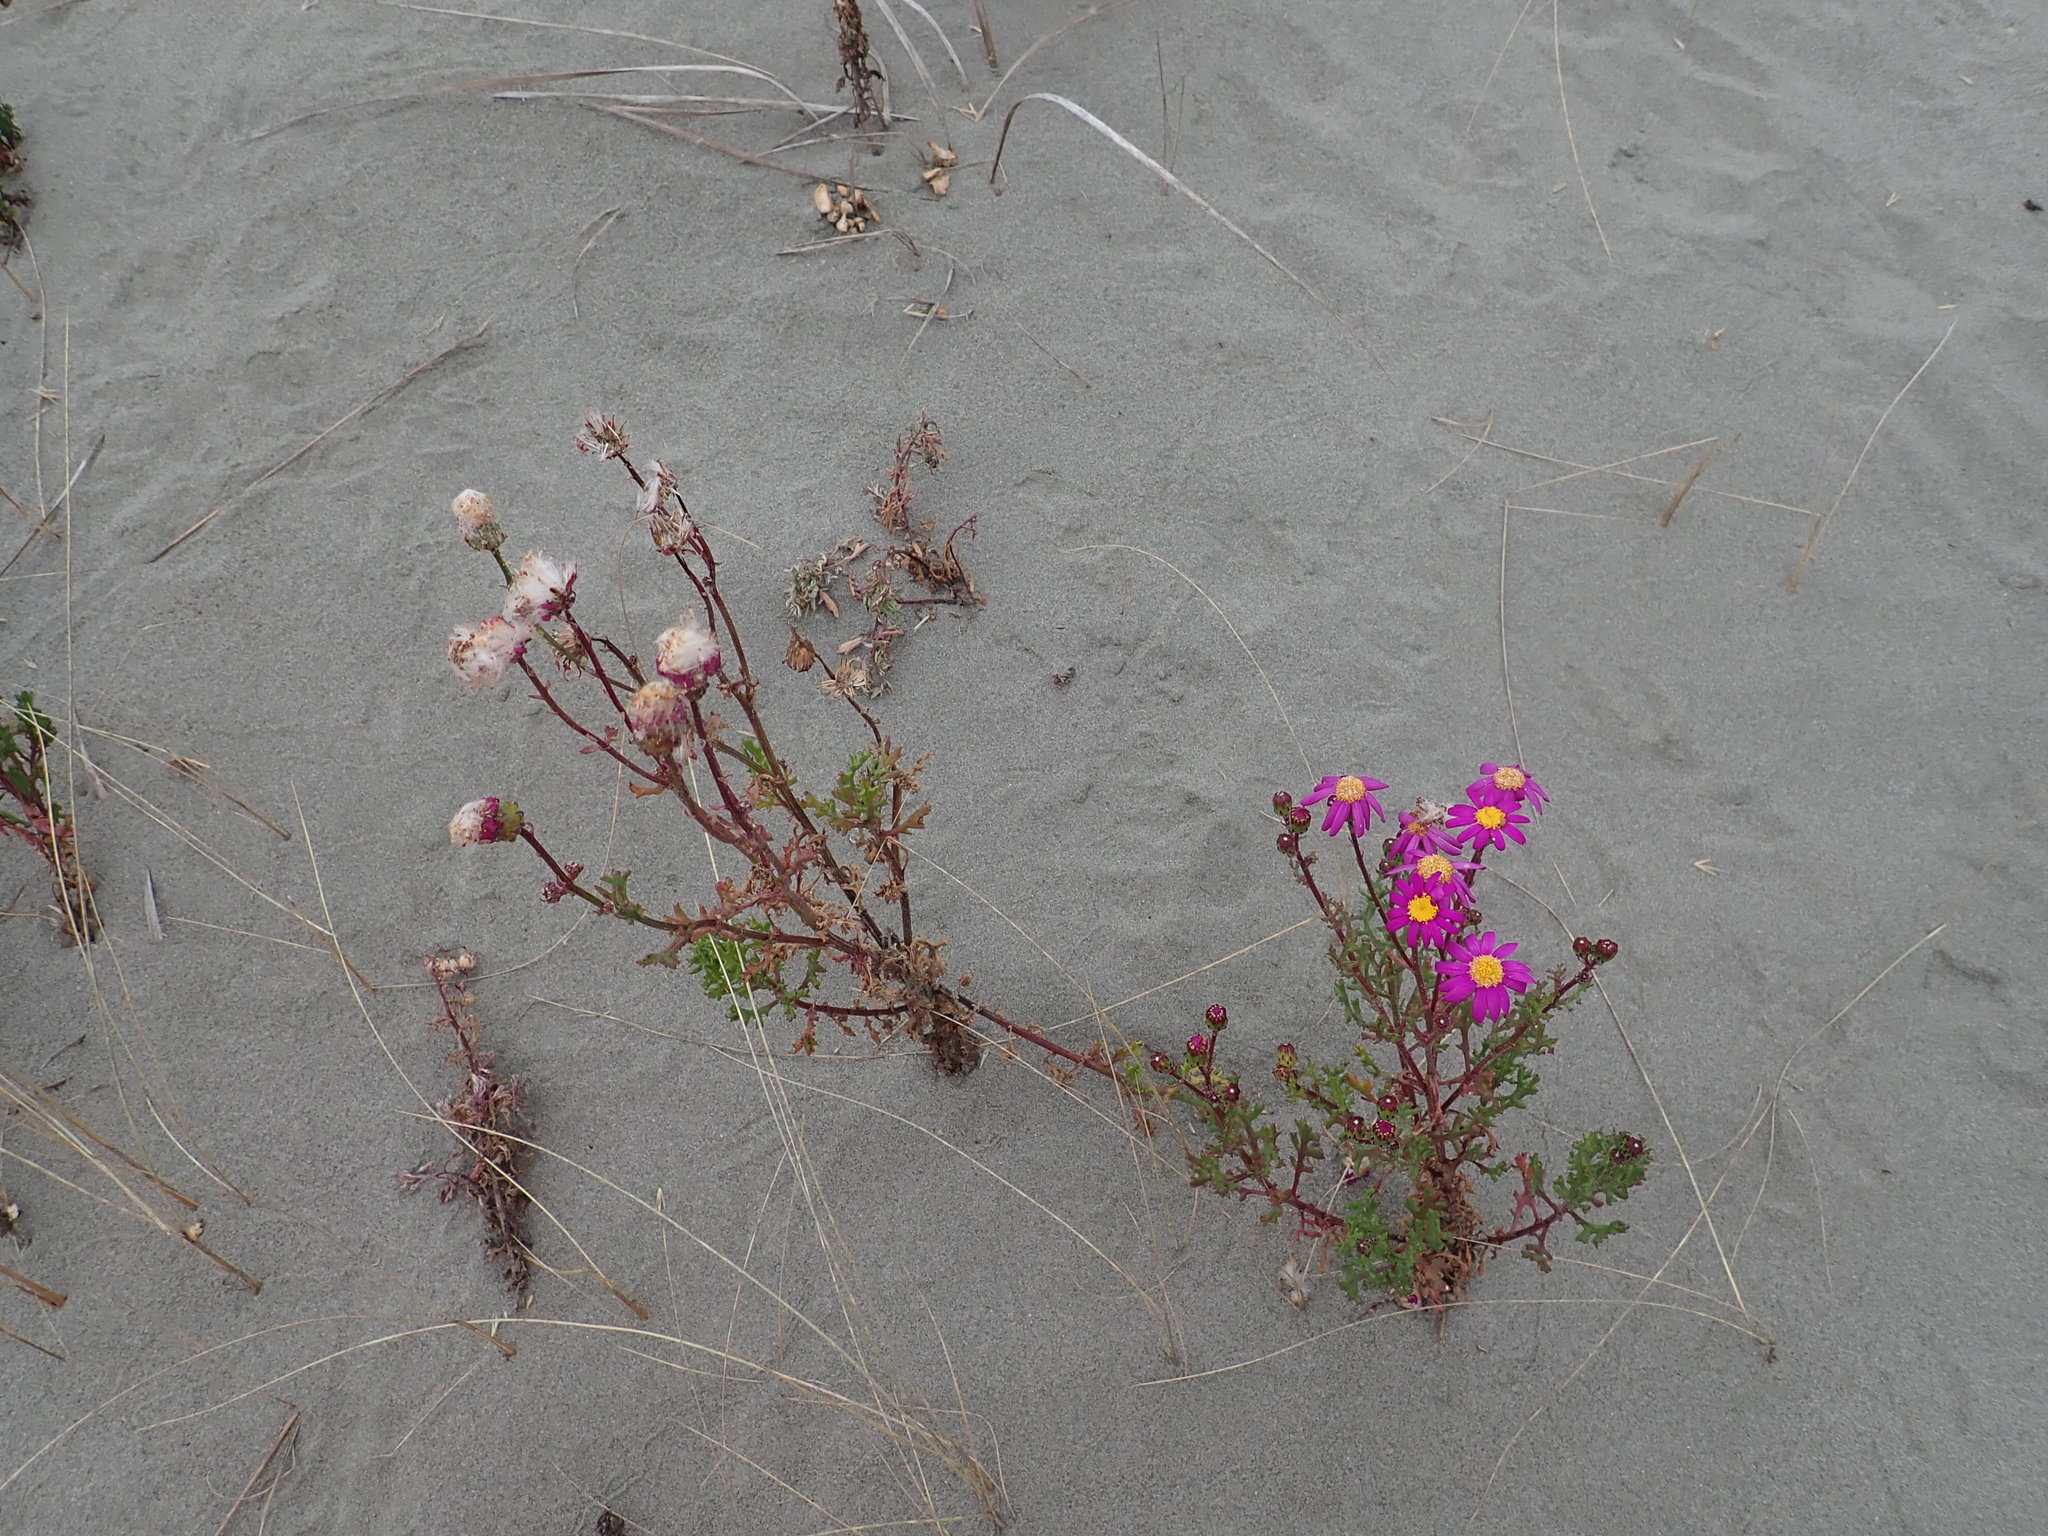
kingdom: Plantae
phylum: Tracheophyta
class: Magnoliopsida
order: Asterales
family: Asteraceae
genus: Senecio
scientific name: Senecio elegans
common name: Purple groundsel
